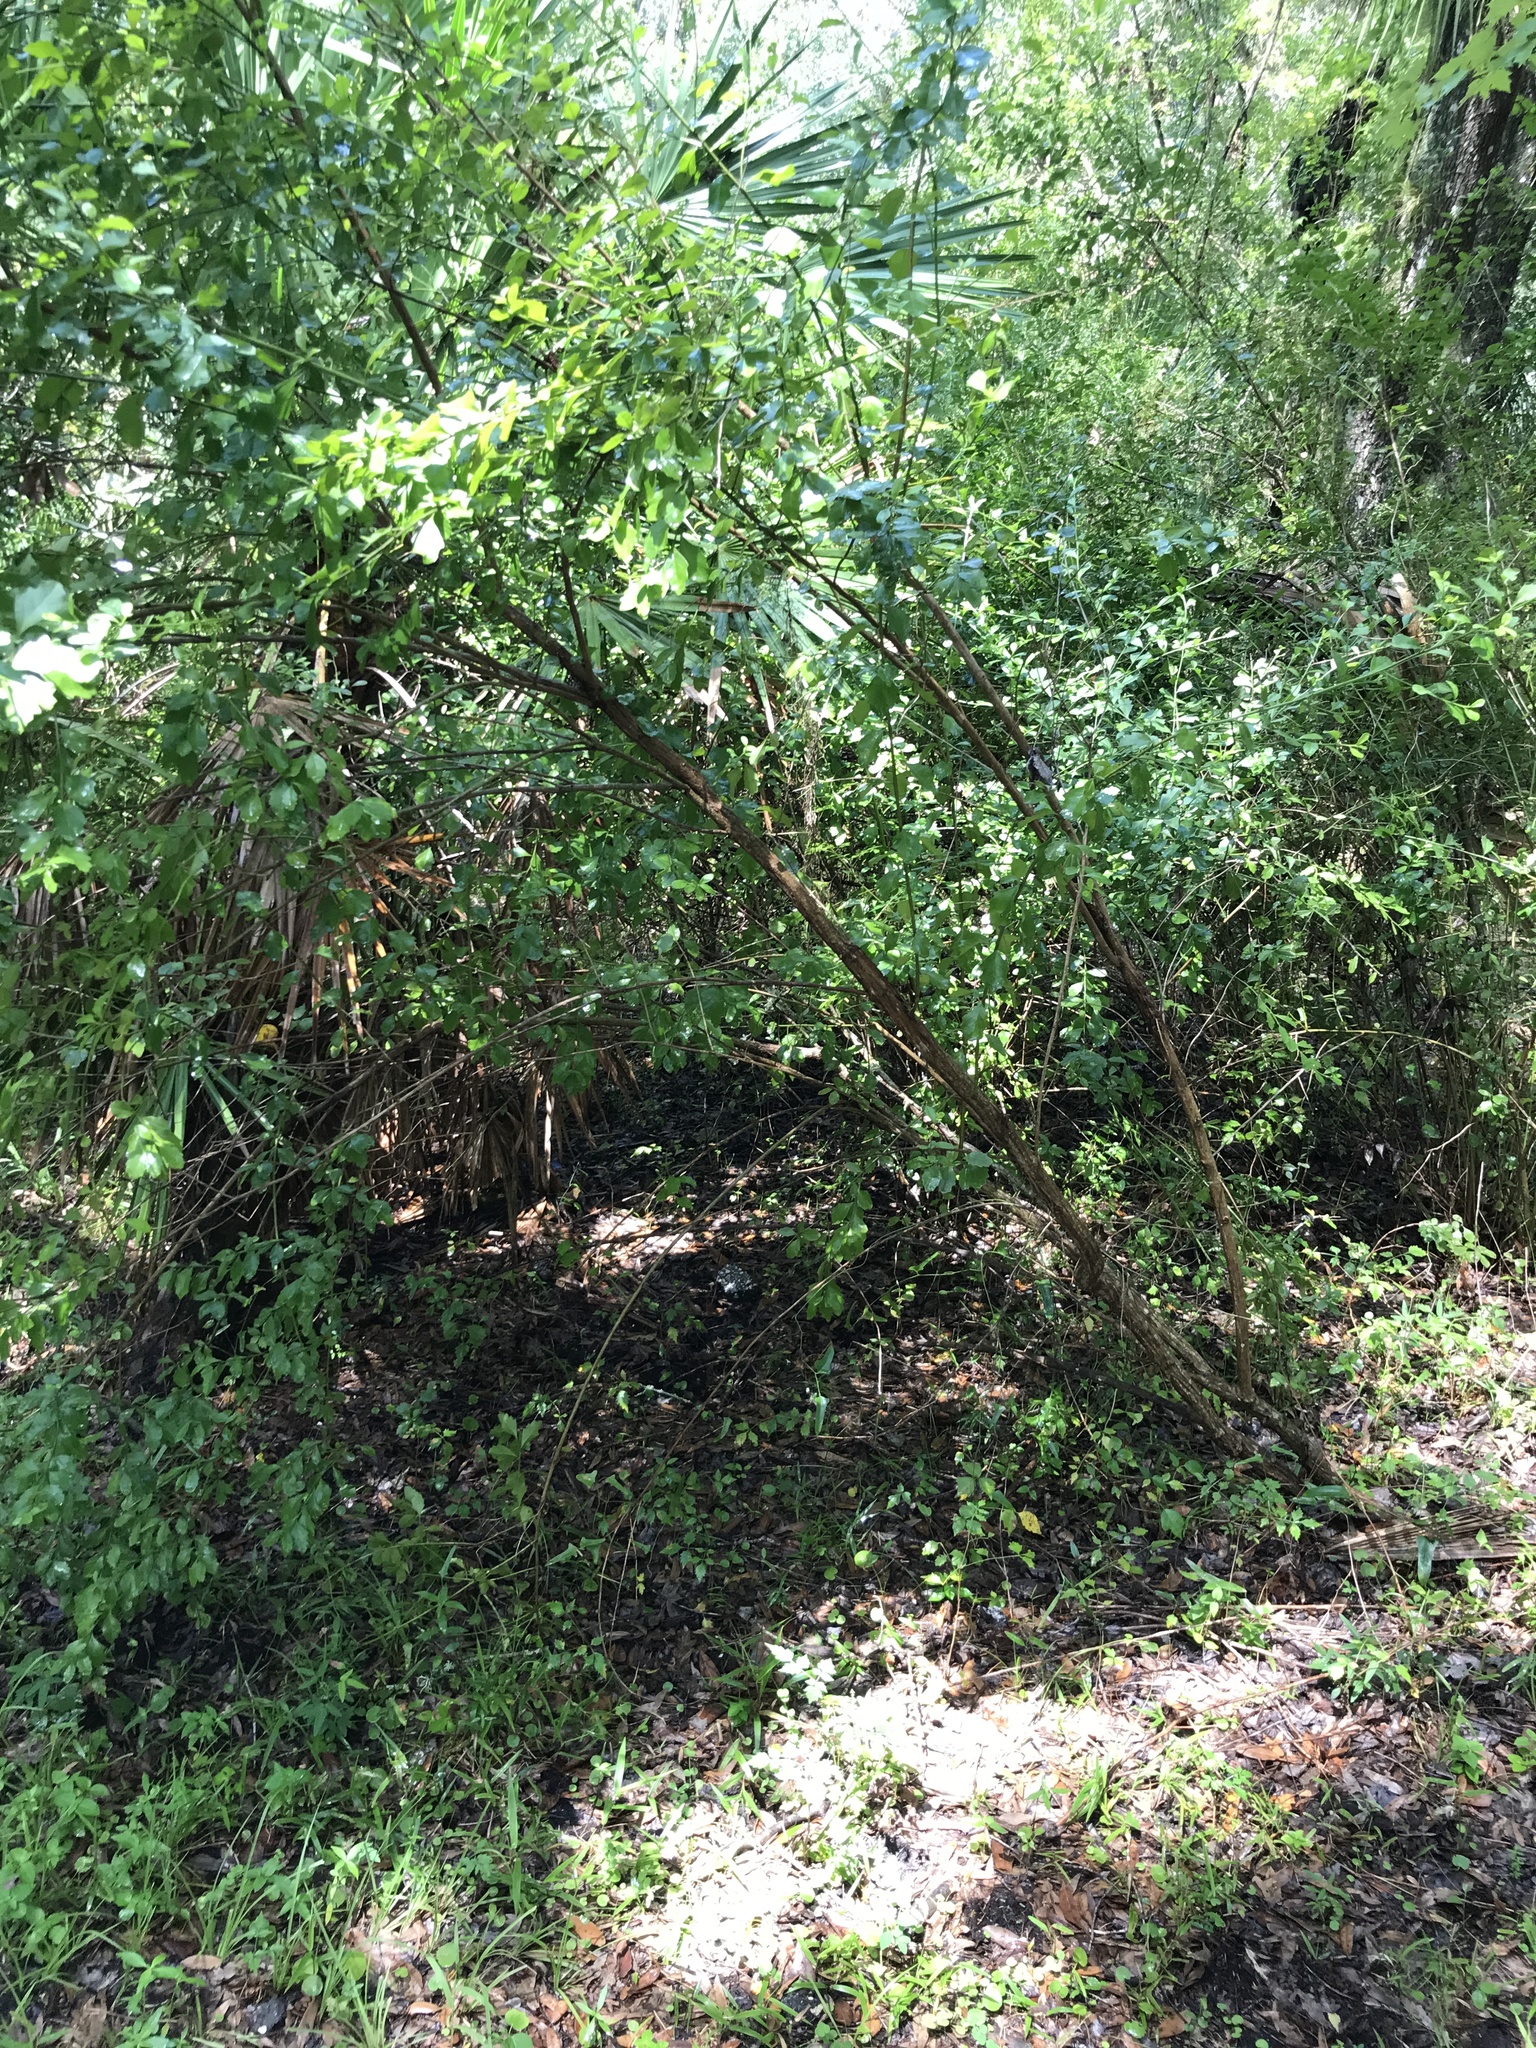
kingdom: Plantae
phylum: Tracheophyta
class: Magnoliopsida
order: Asterales
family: Asteraceae
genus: Baccharis
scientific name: Baccharis halimifolia
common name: Eastern baccharis
